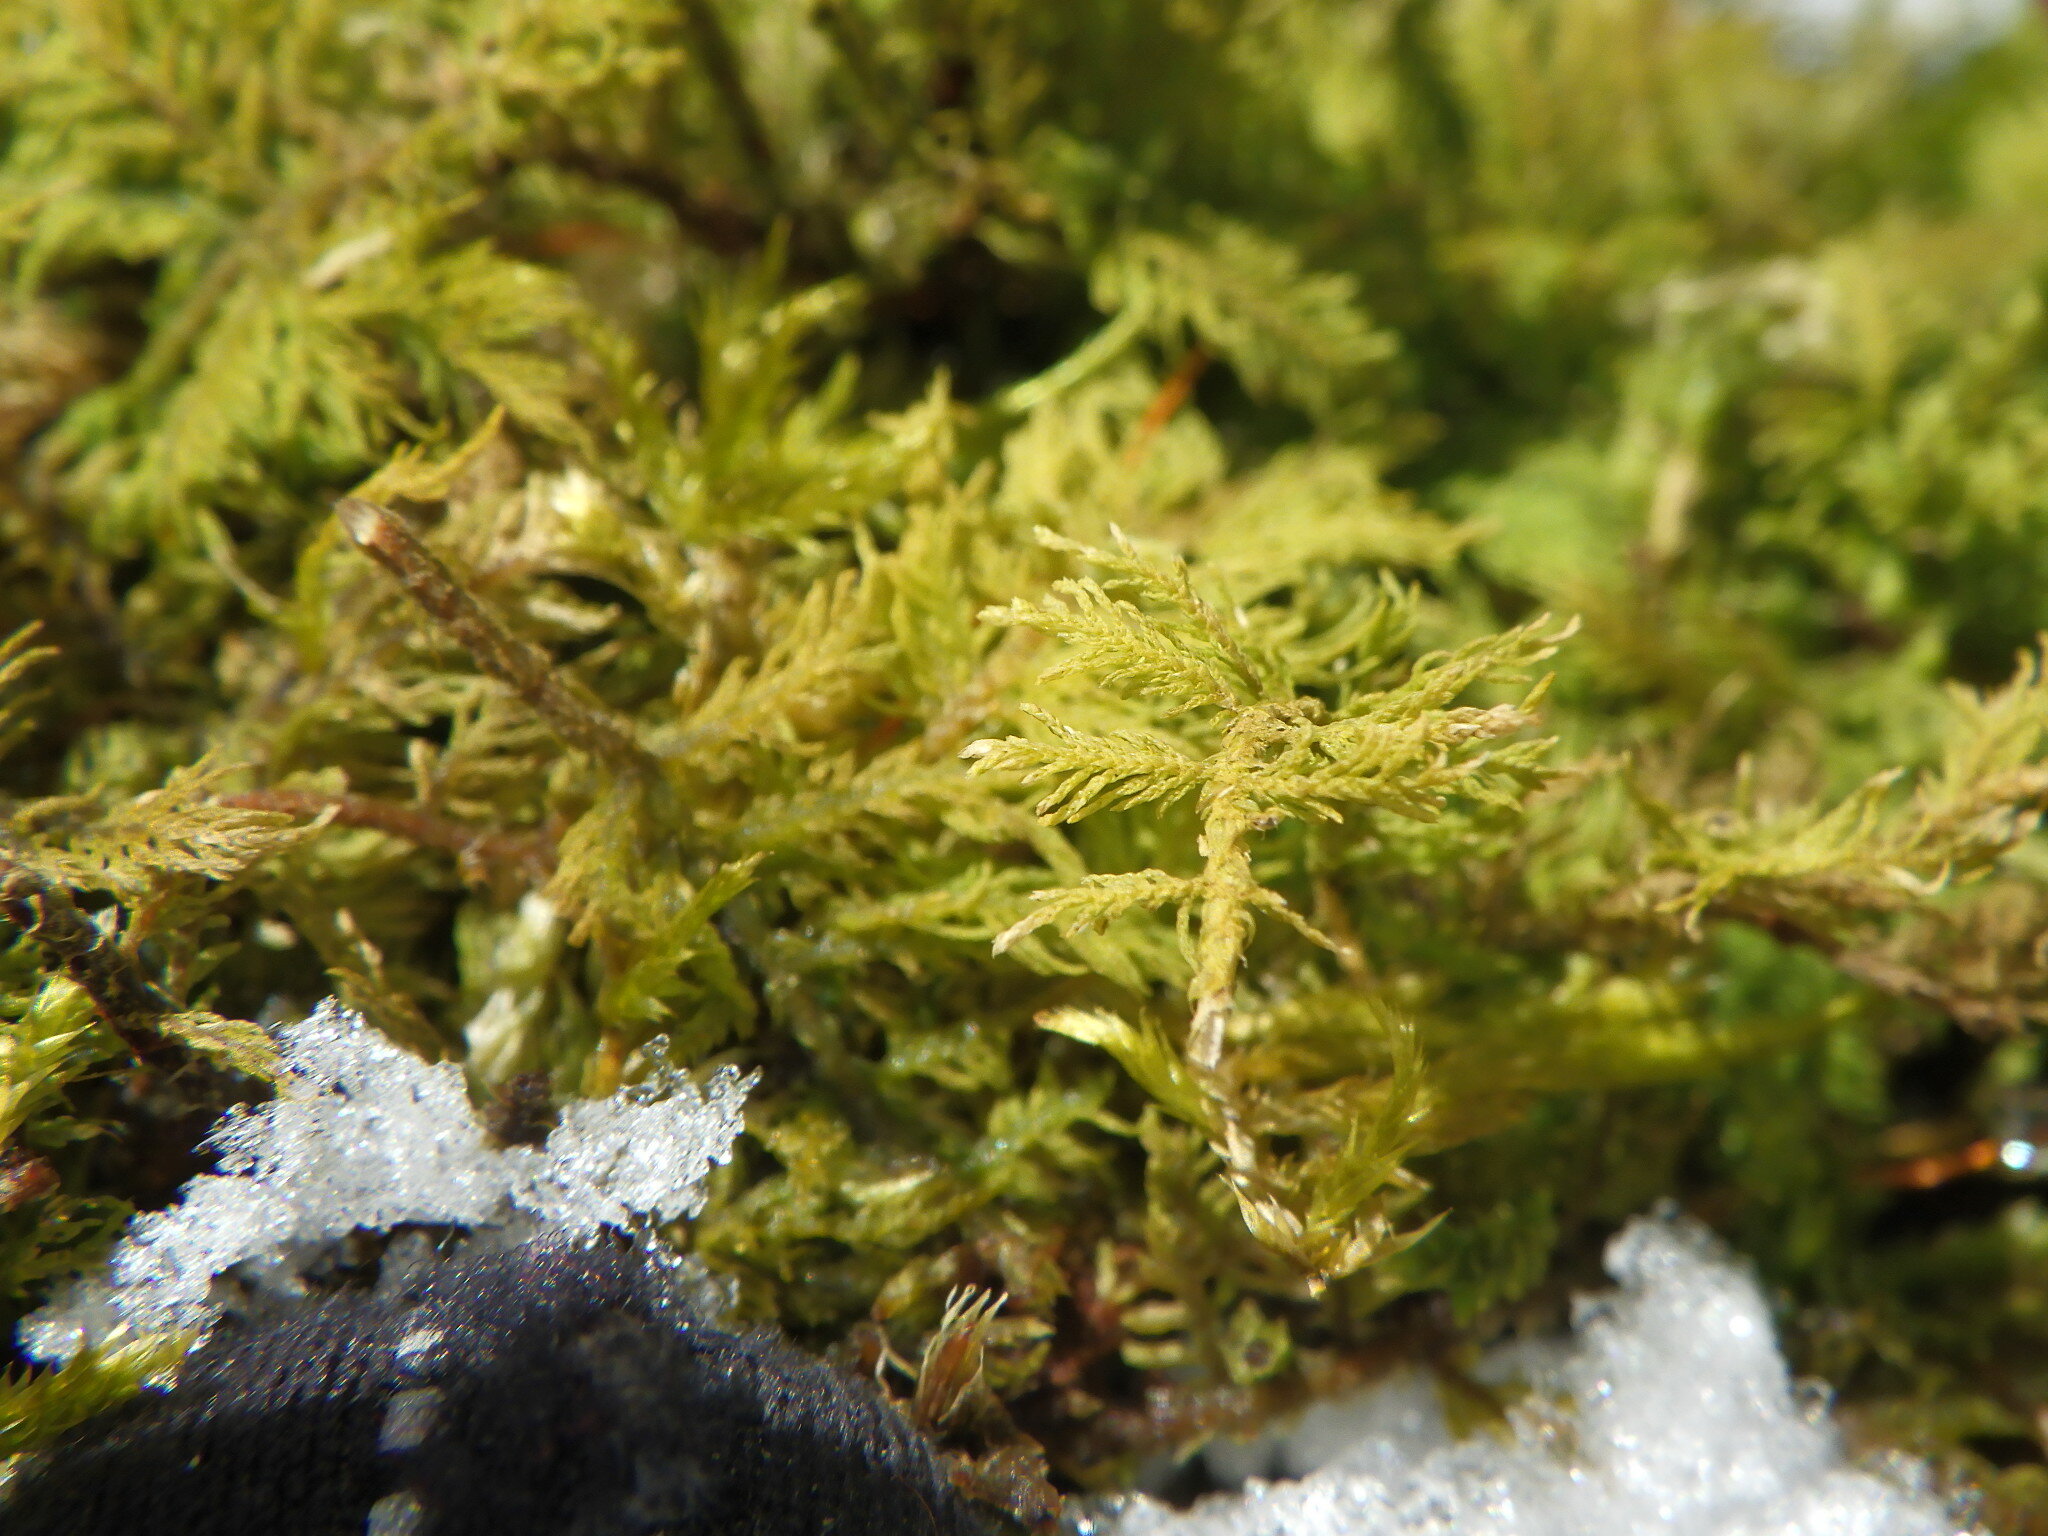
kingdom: Plantae
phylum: Bryophyta
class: Bryopsida
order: Hypnales
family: Thuidiaceae
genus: Thuidium
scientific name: Thuidium delicatulum
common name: Delicate fern moss
